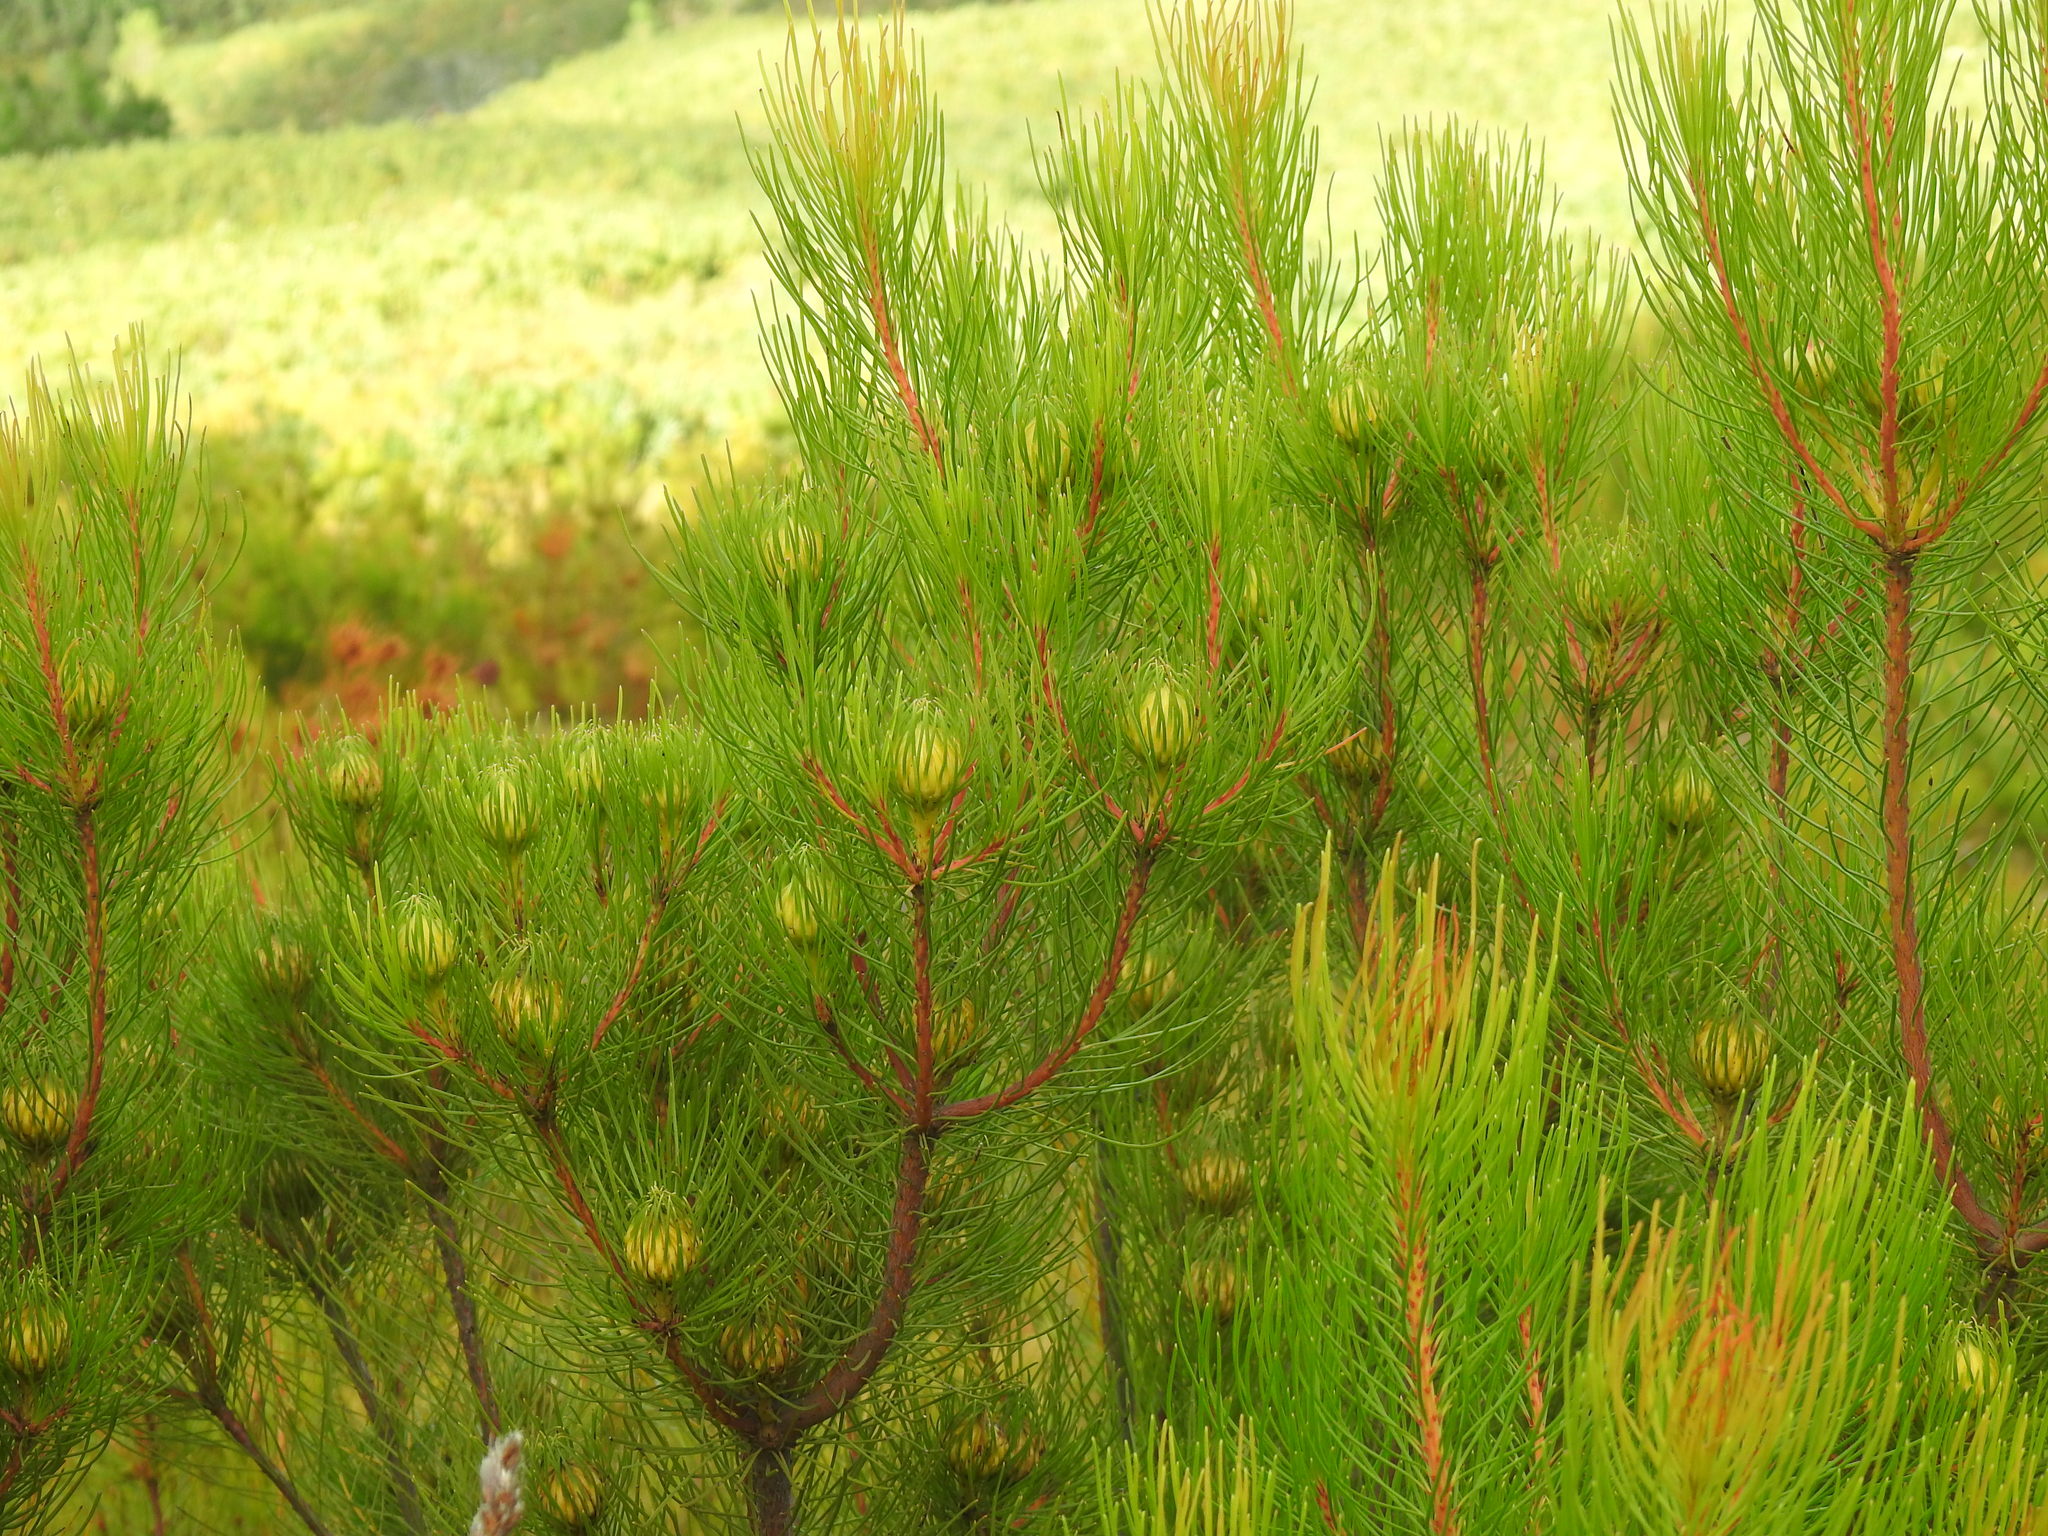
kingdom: Plantae
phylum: Tracheophyta
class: Magnoliopsida
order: Proteales
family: Proteaceae
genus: Aulax
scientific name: Aulax cancellata
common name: Channel-leaf featherbush
